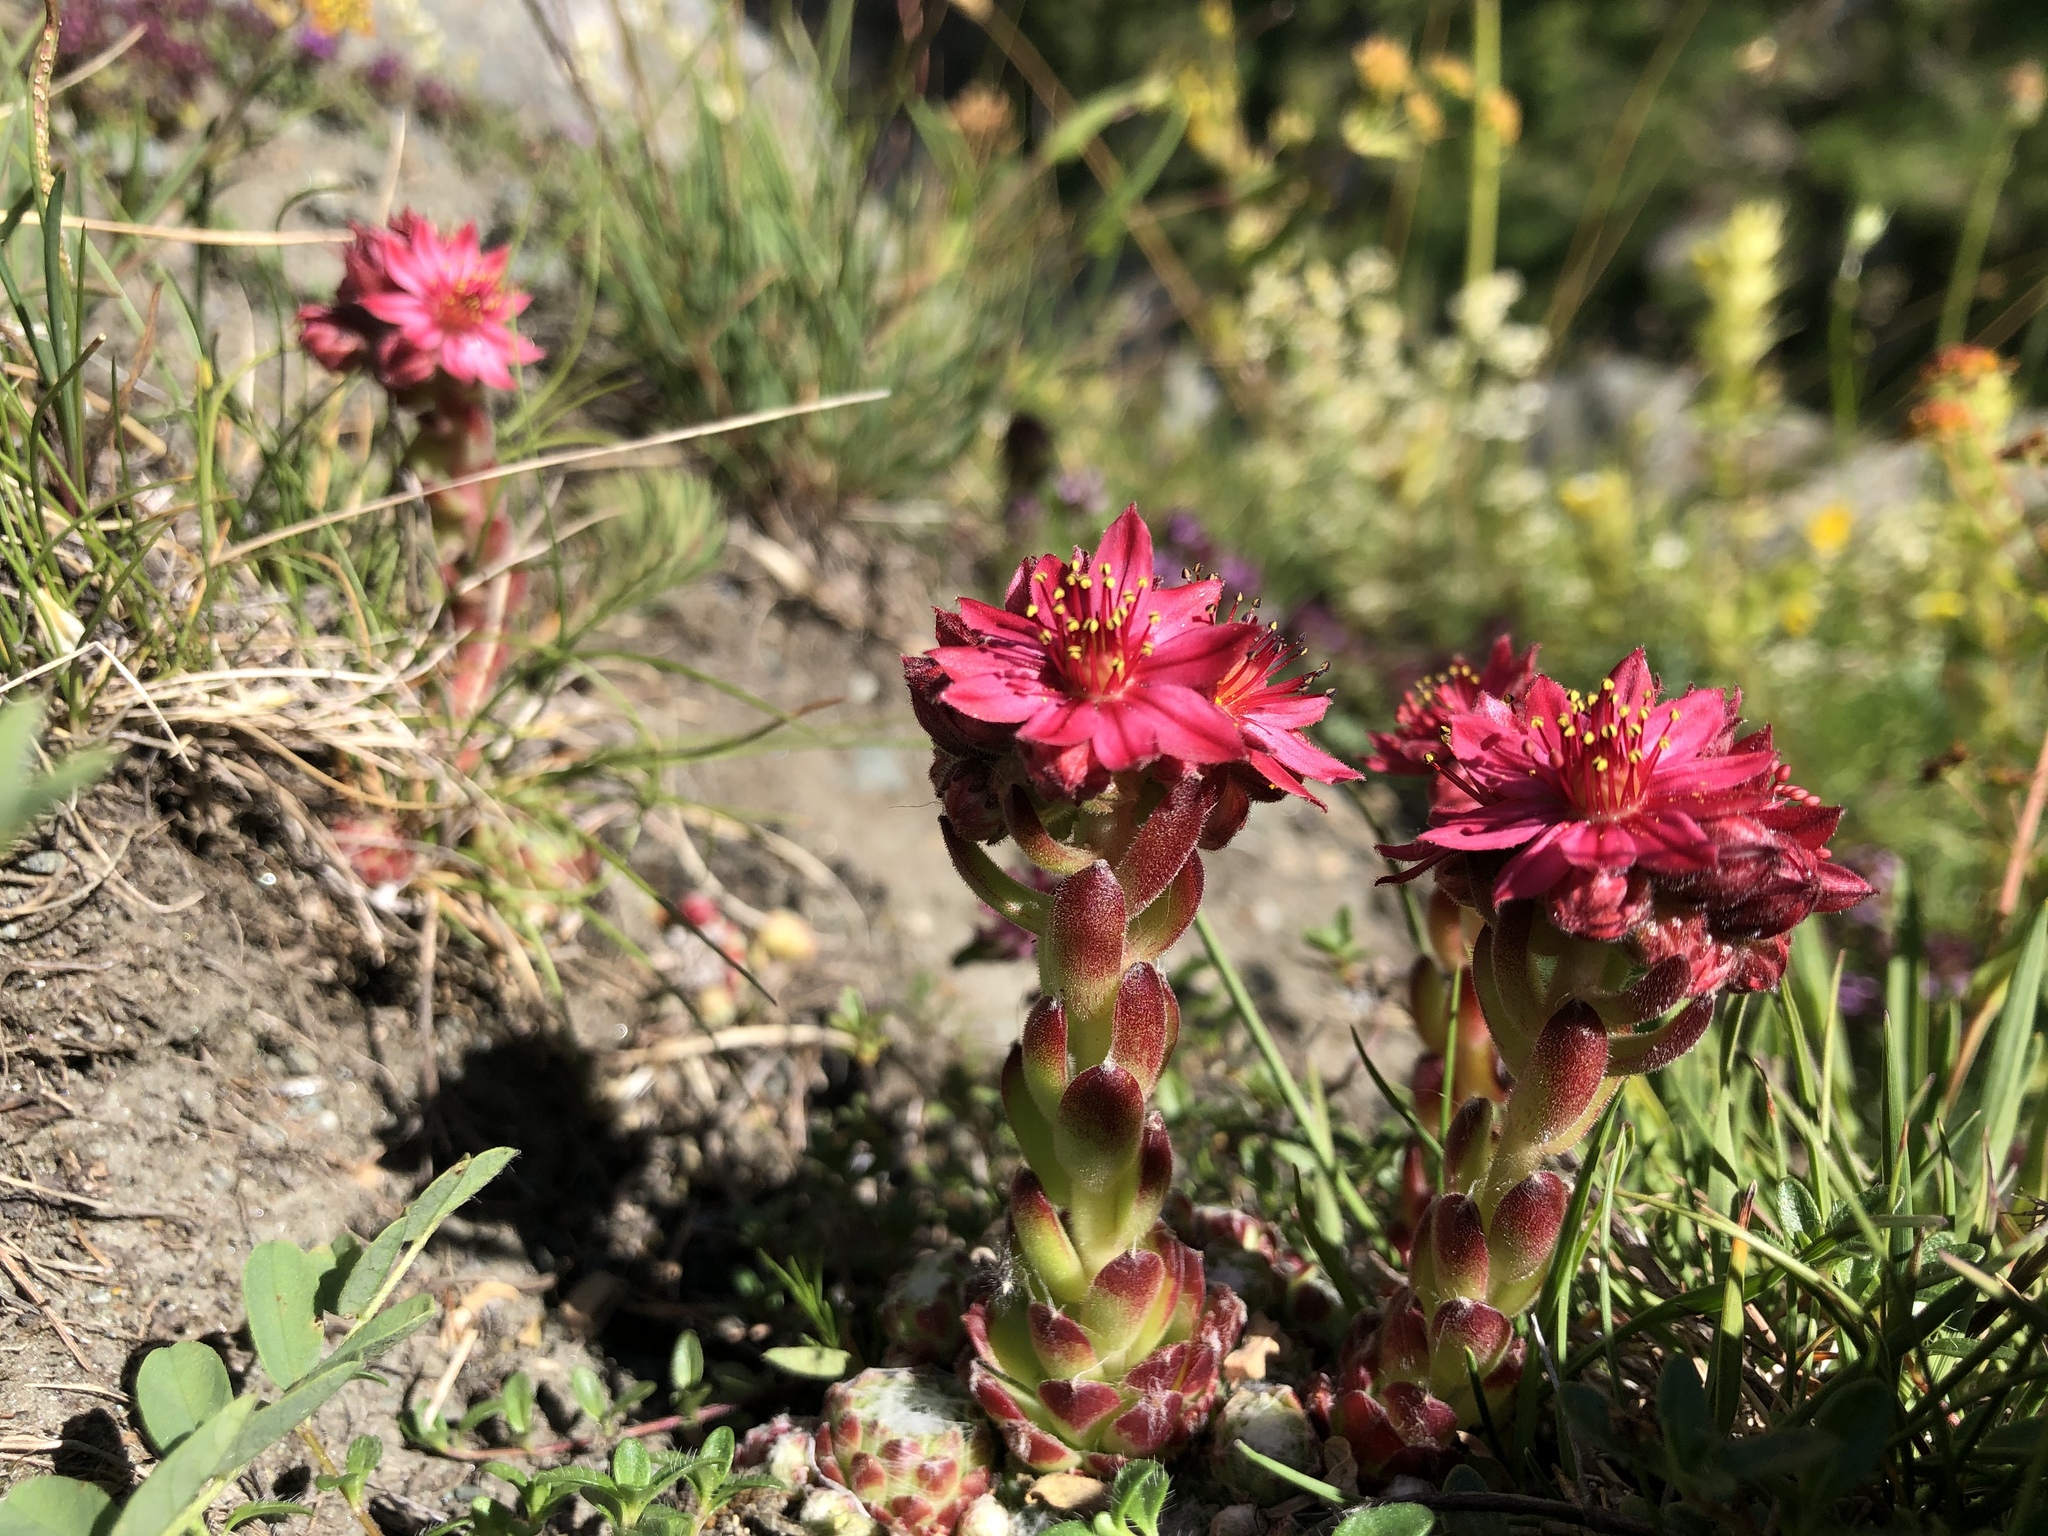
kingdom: Plantae
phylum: Tracheophyta
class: Magnoliopsida
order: Saxifragales
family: Crassulaceae
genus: Sempervivum
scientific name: Sempervivum arachnoideum
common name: Cobweb house-leek
